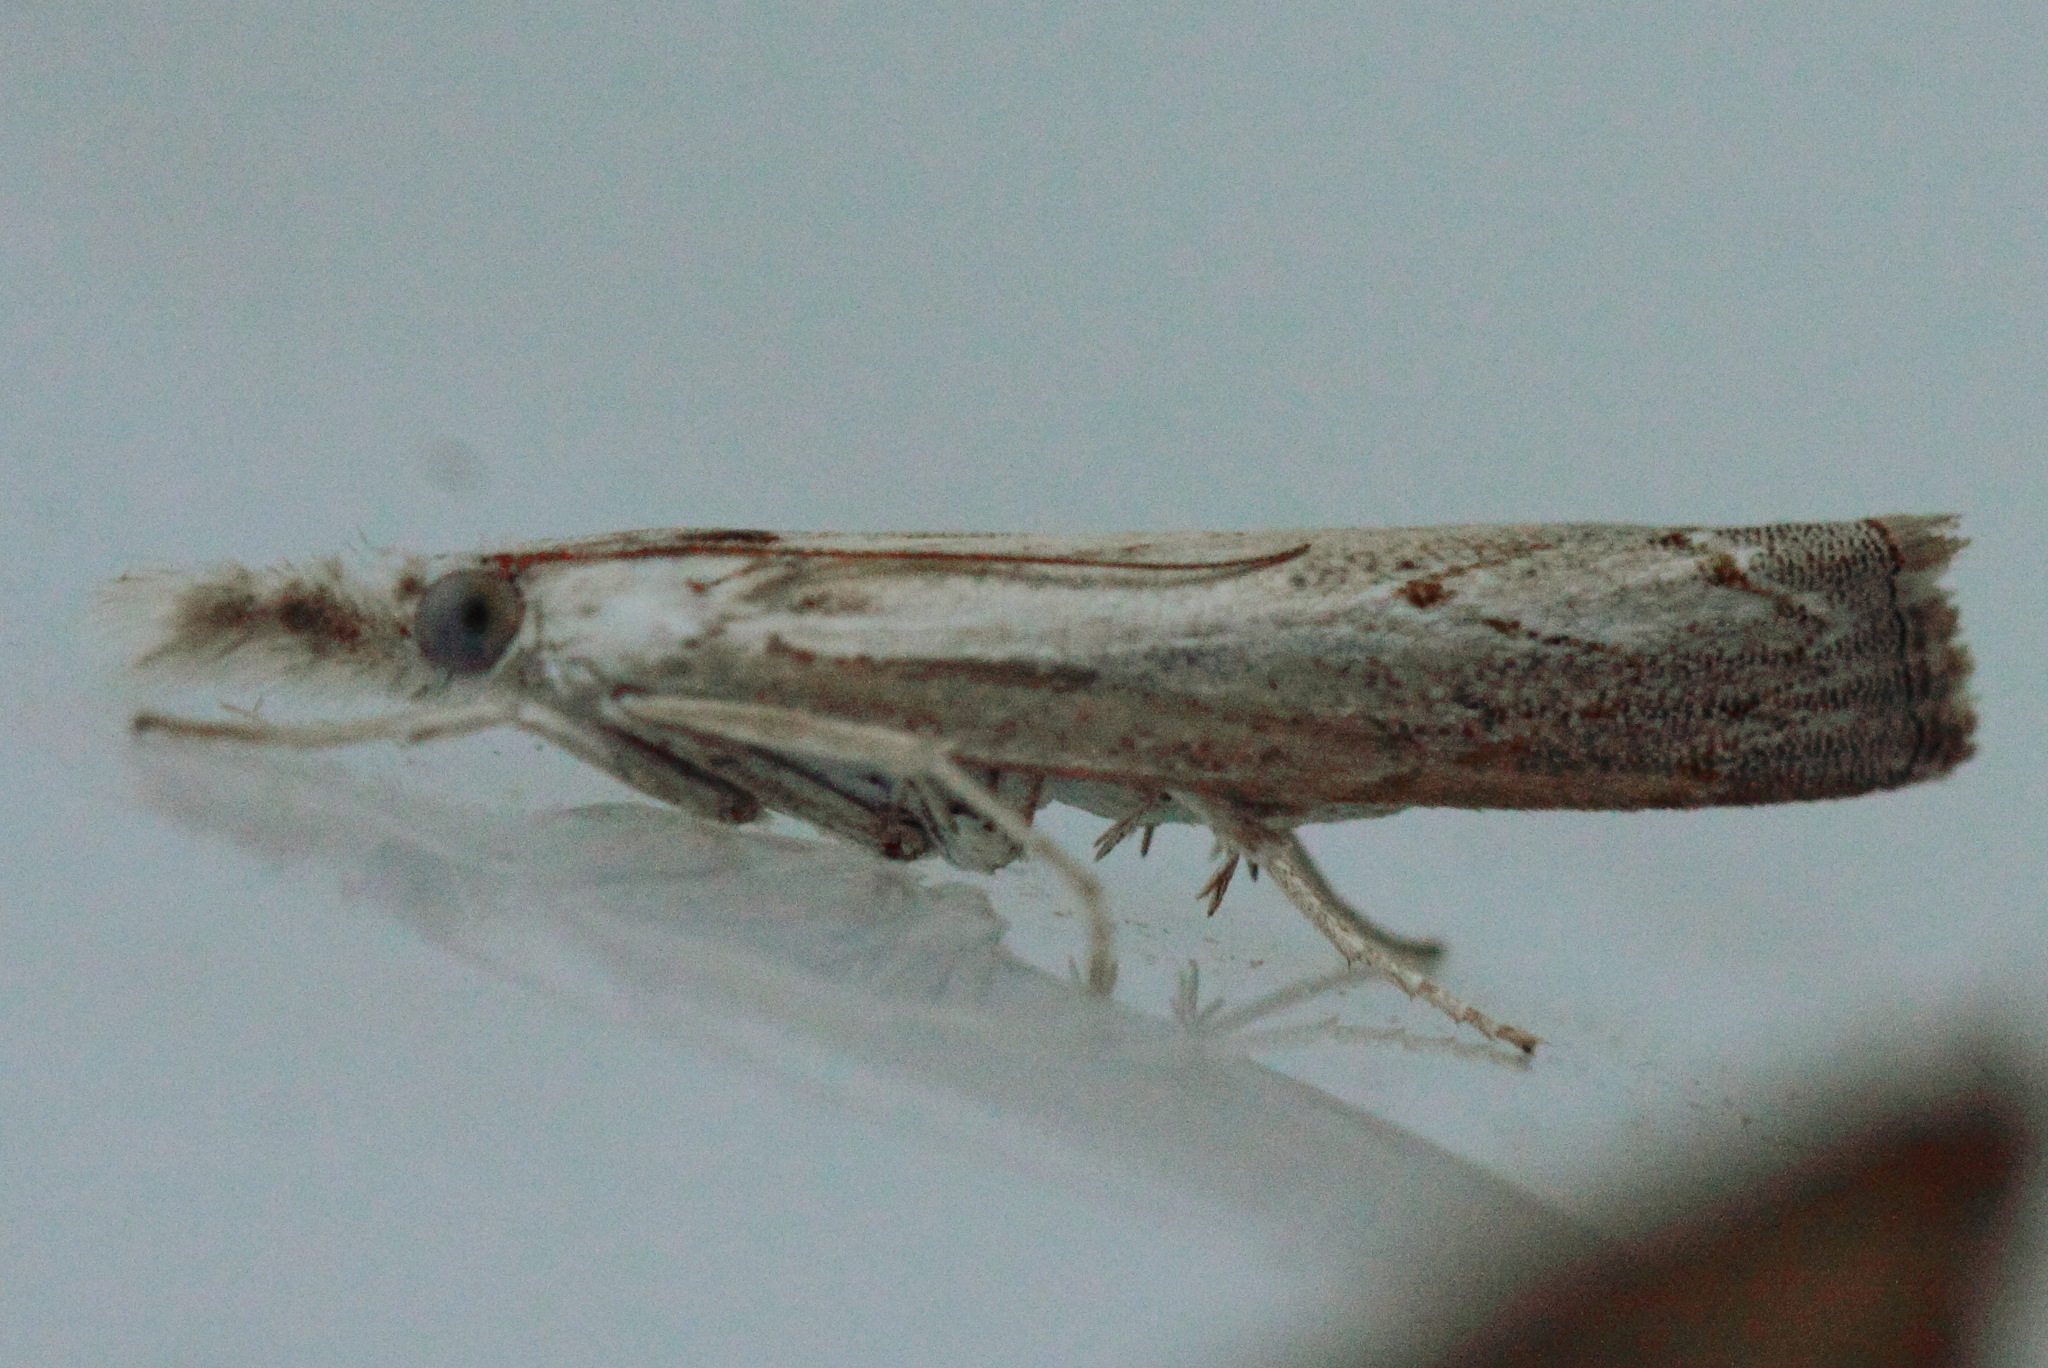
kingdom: Animalia
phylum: Arthropoda
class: Insecta
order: Lepidoptera
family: Crambidae
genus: Culladia
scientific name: Culladia cuneiferellus
